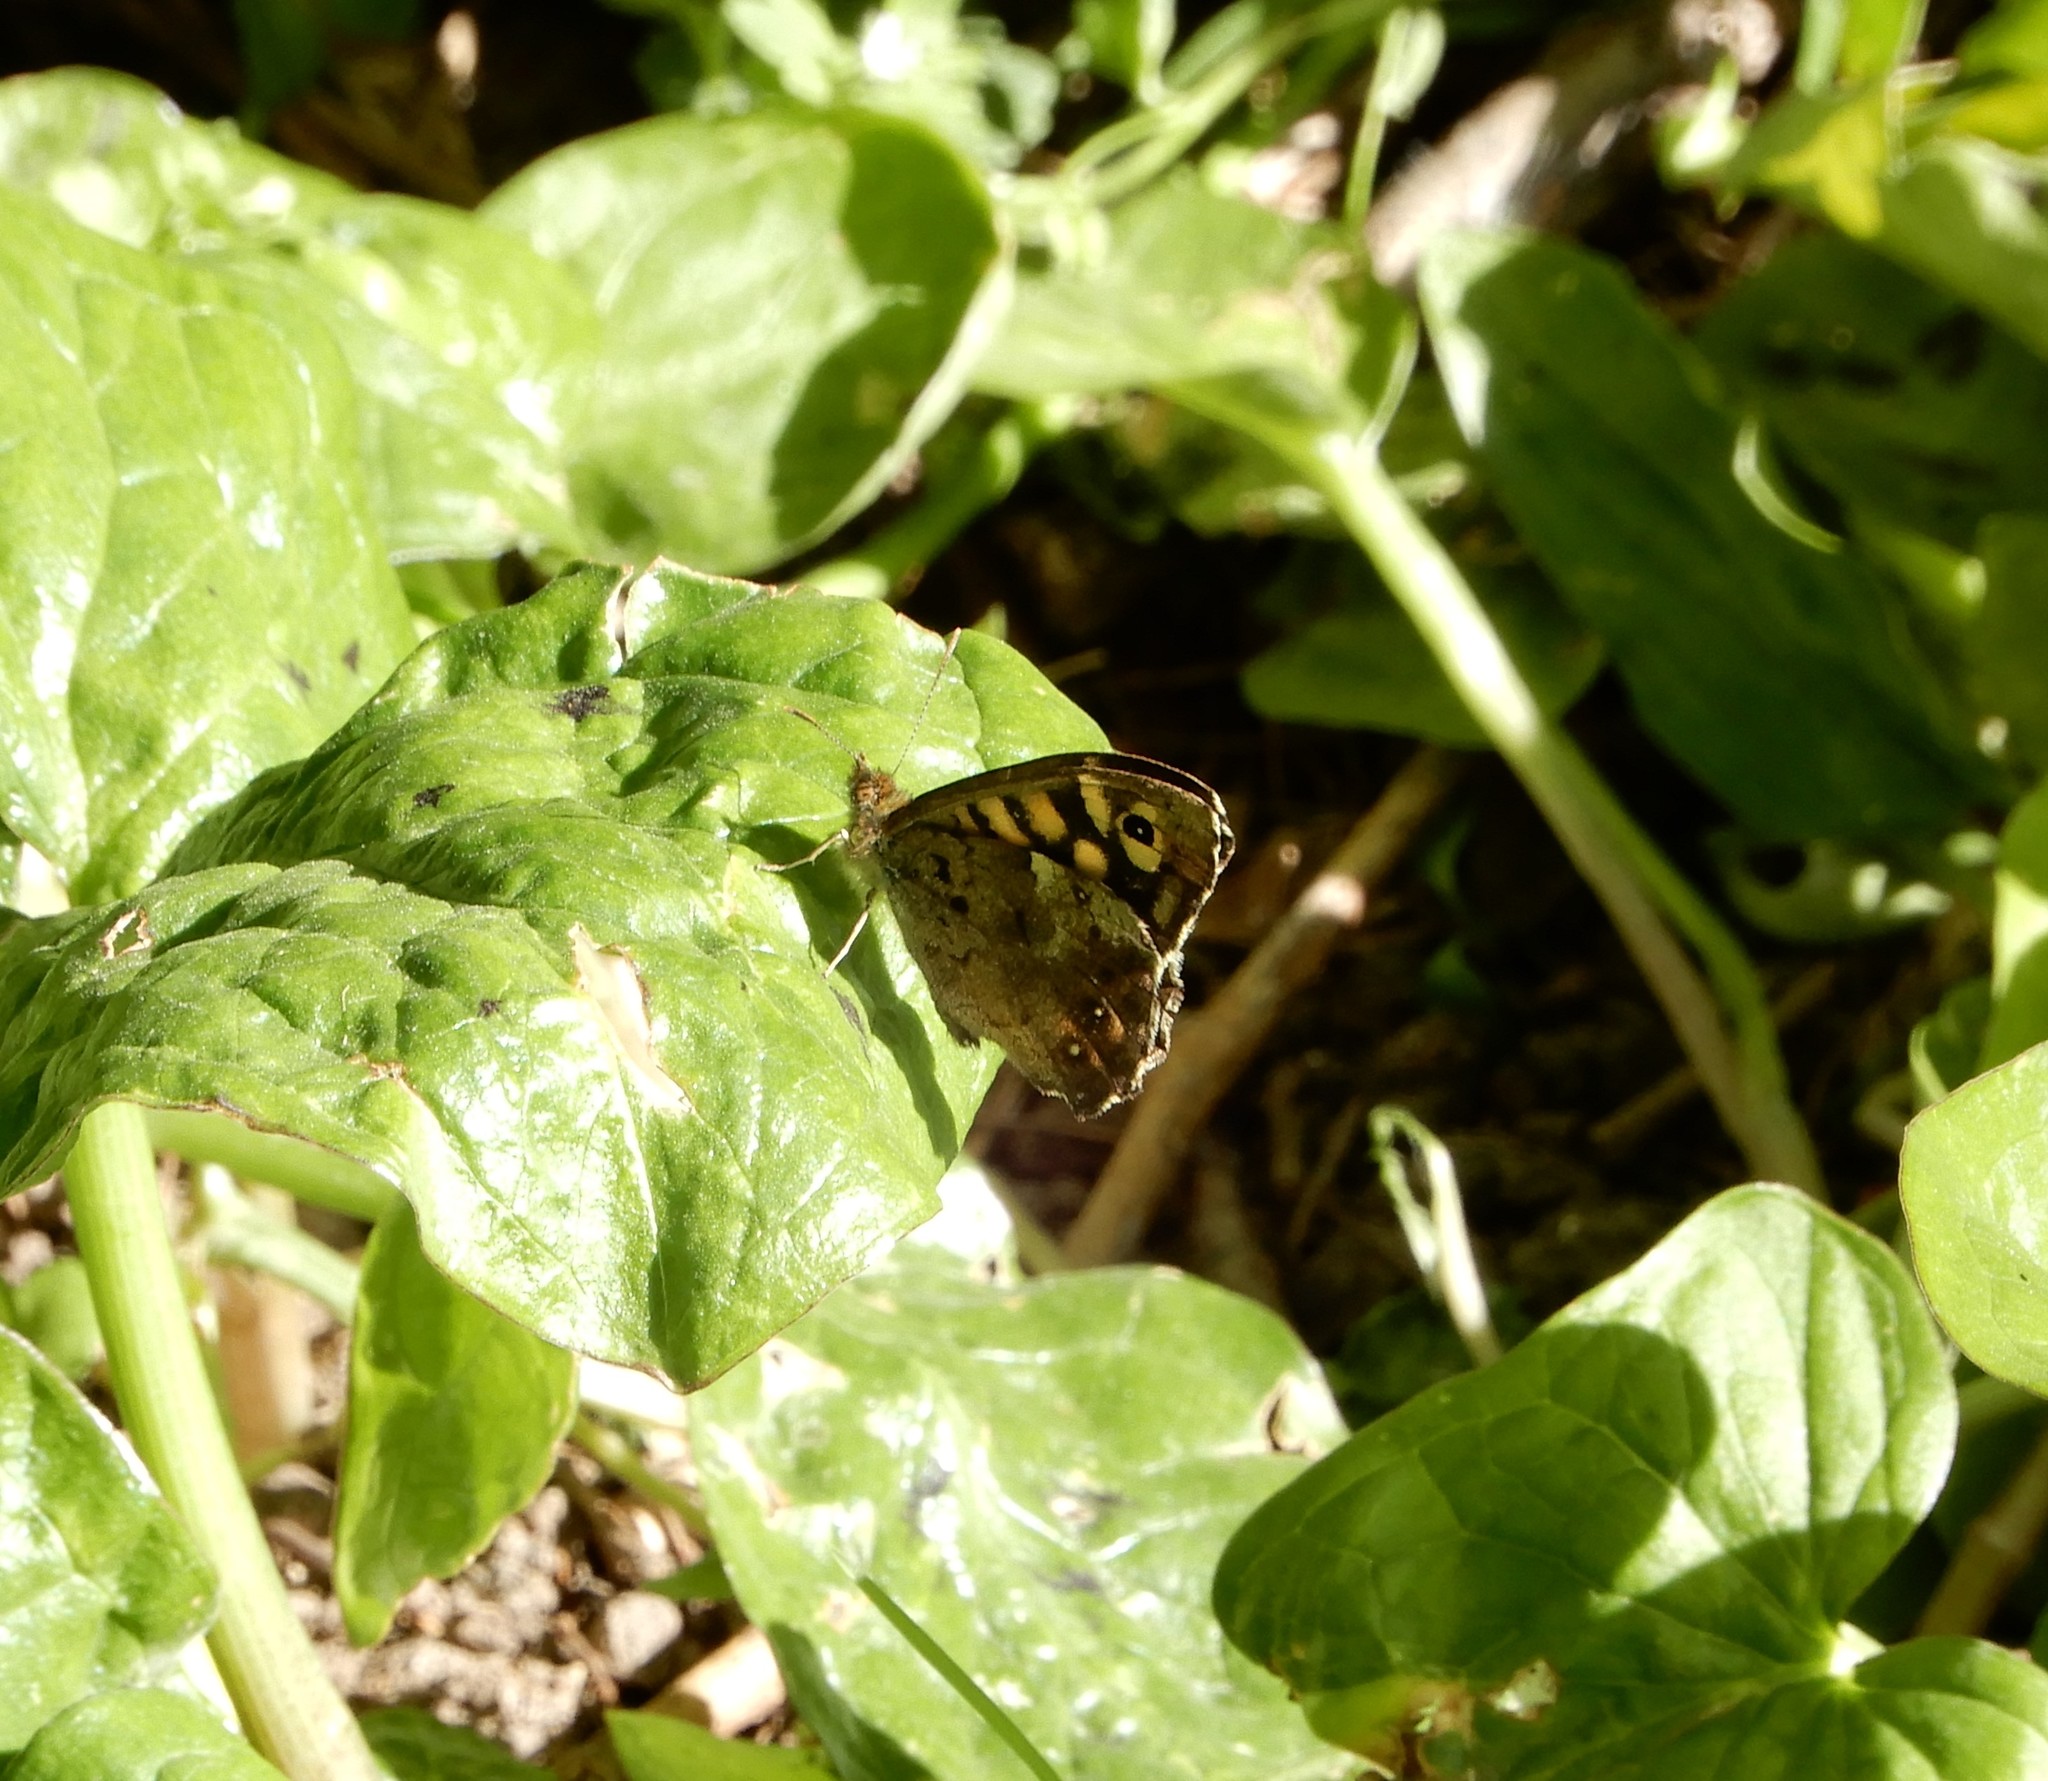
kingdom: Animalia
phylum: Arthropoda
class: Insecta
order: Lepidoptera
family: Nymphalidae
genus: Pararge
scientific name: Pararge aegeria
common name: Speckled wood
